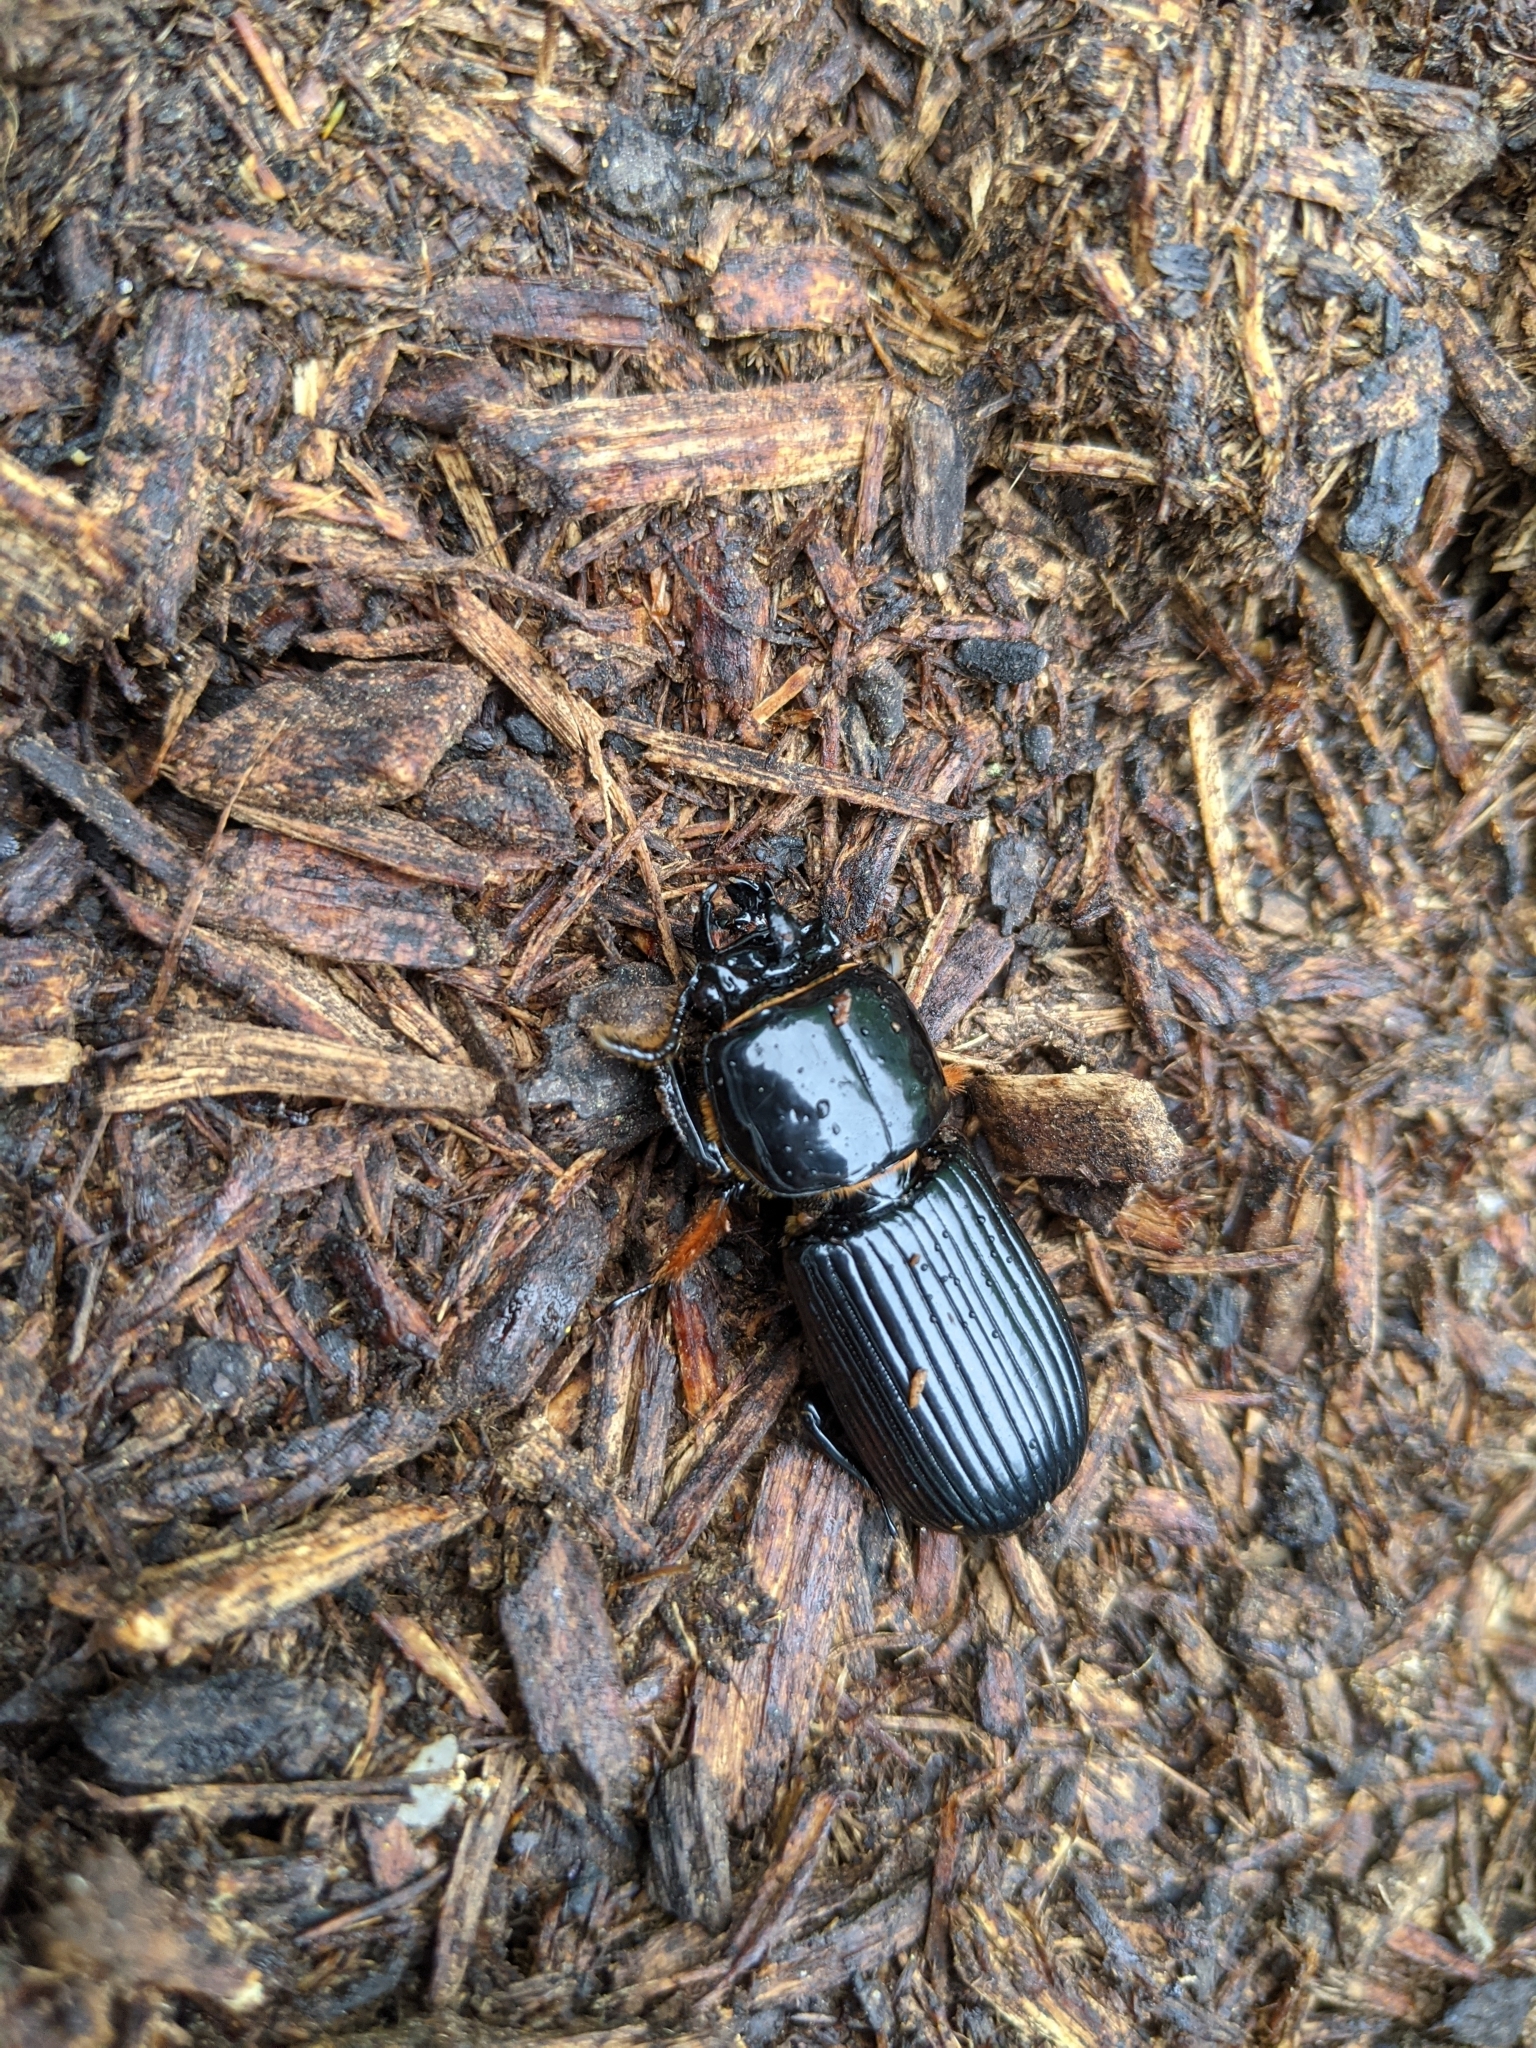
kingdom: Animalia
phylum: Arthropoda
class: Insecta
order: Coleoptera
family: Passalidae
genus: Odontotaenius
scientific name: Odontotaenius disjunctus
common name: Patent leather beetle
